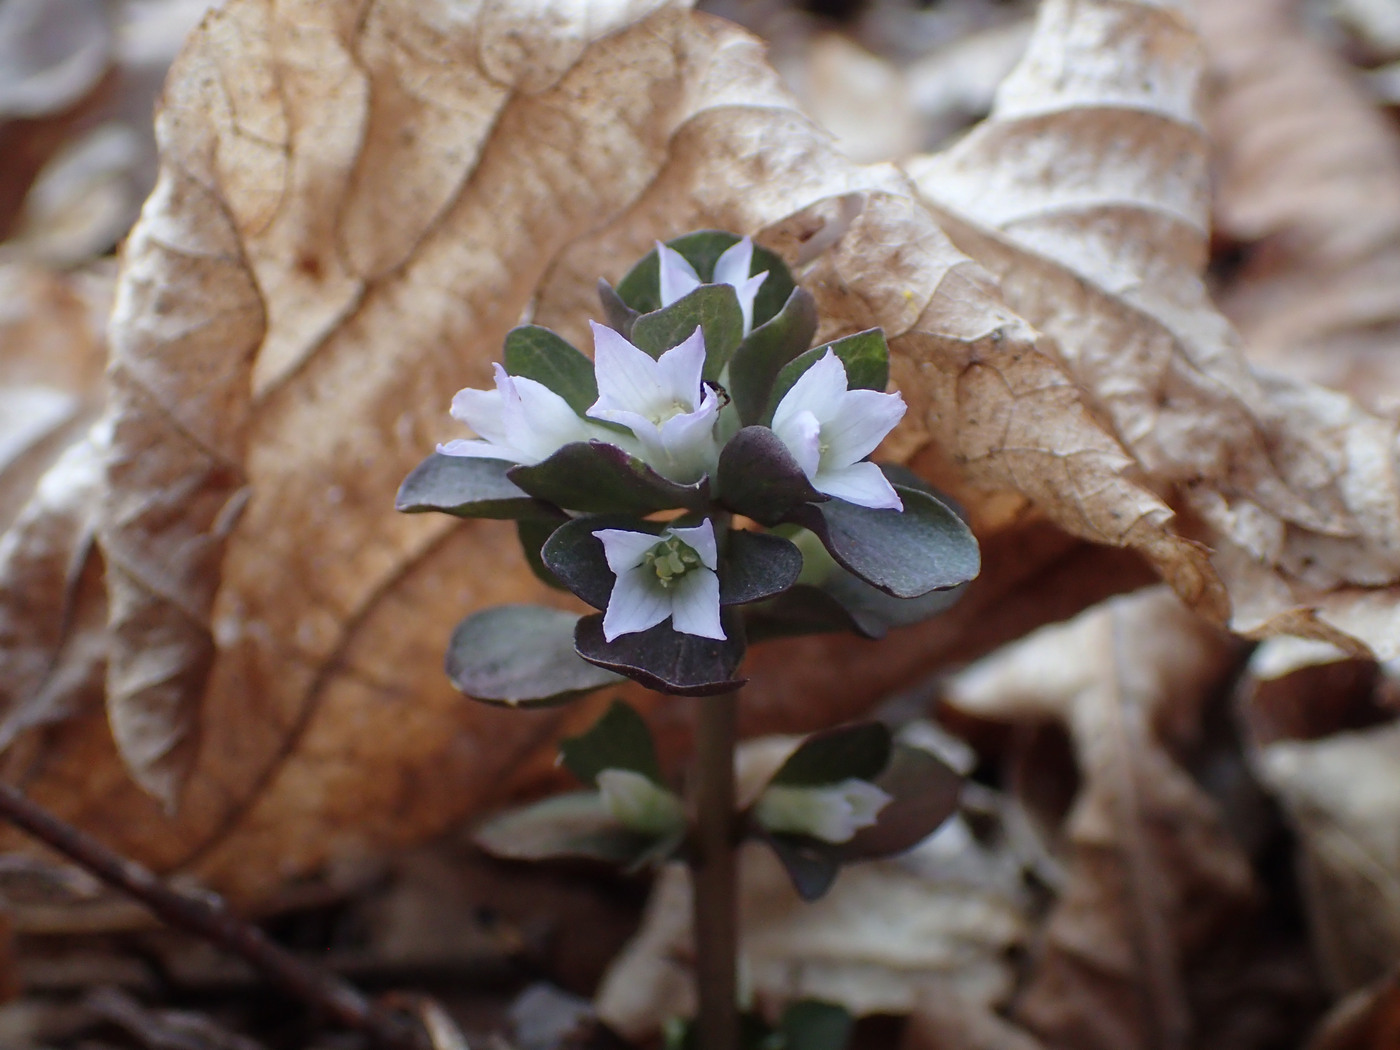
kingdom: Plantae
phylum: Tracheophyta
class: Magnoliopsida
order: Gentianales
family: Gentianaceae
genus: Obolaria
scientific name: Obolaria virginica
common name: Pennywort
